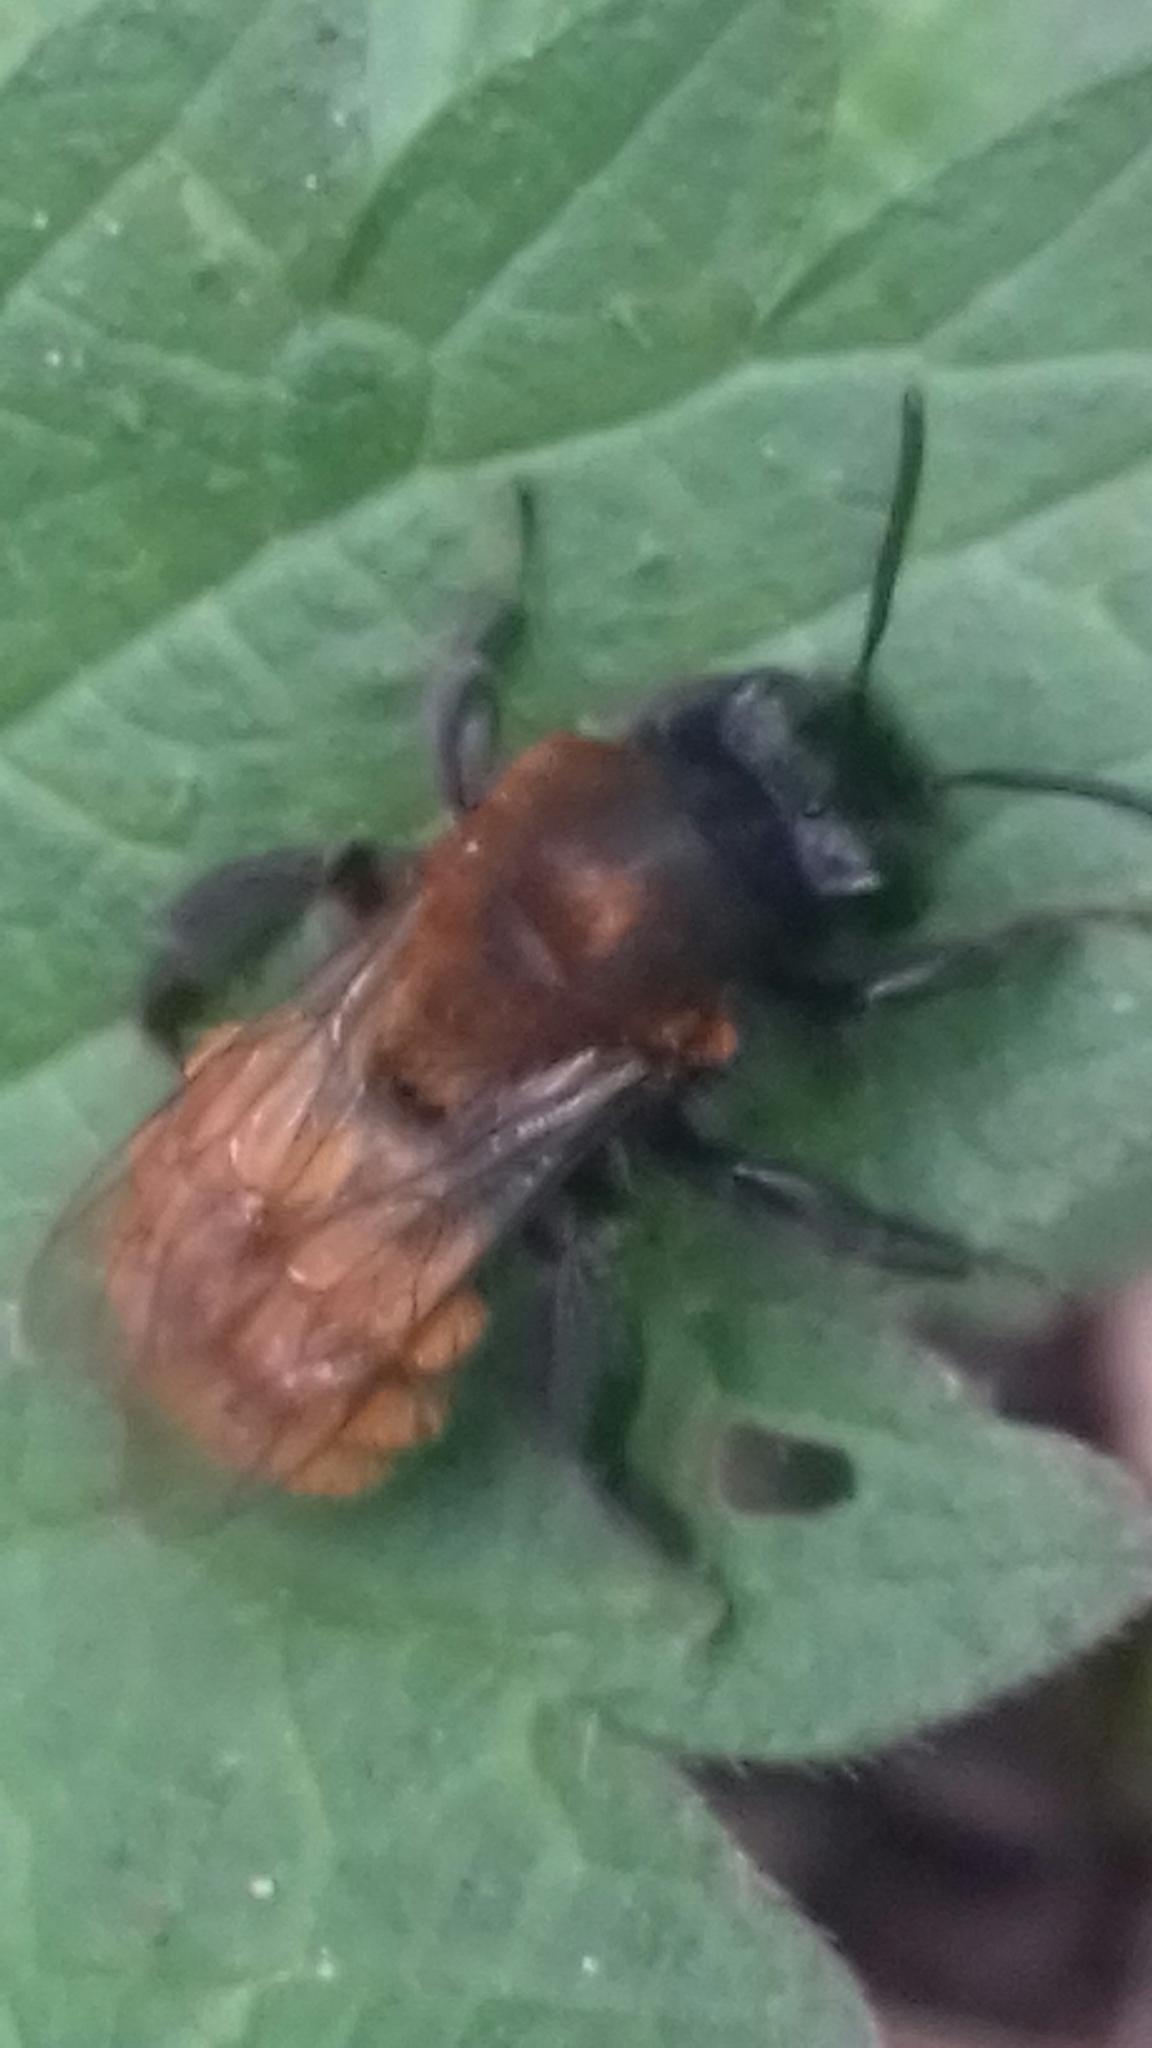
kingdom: Animalia
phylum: Arthropoda
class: Insecta
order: Hymenoptera
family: Andrenidae
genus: Andrena
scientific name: Andrena fulva
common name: Tawny mining bee
